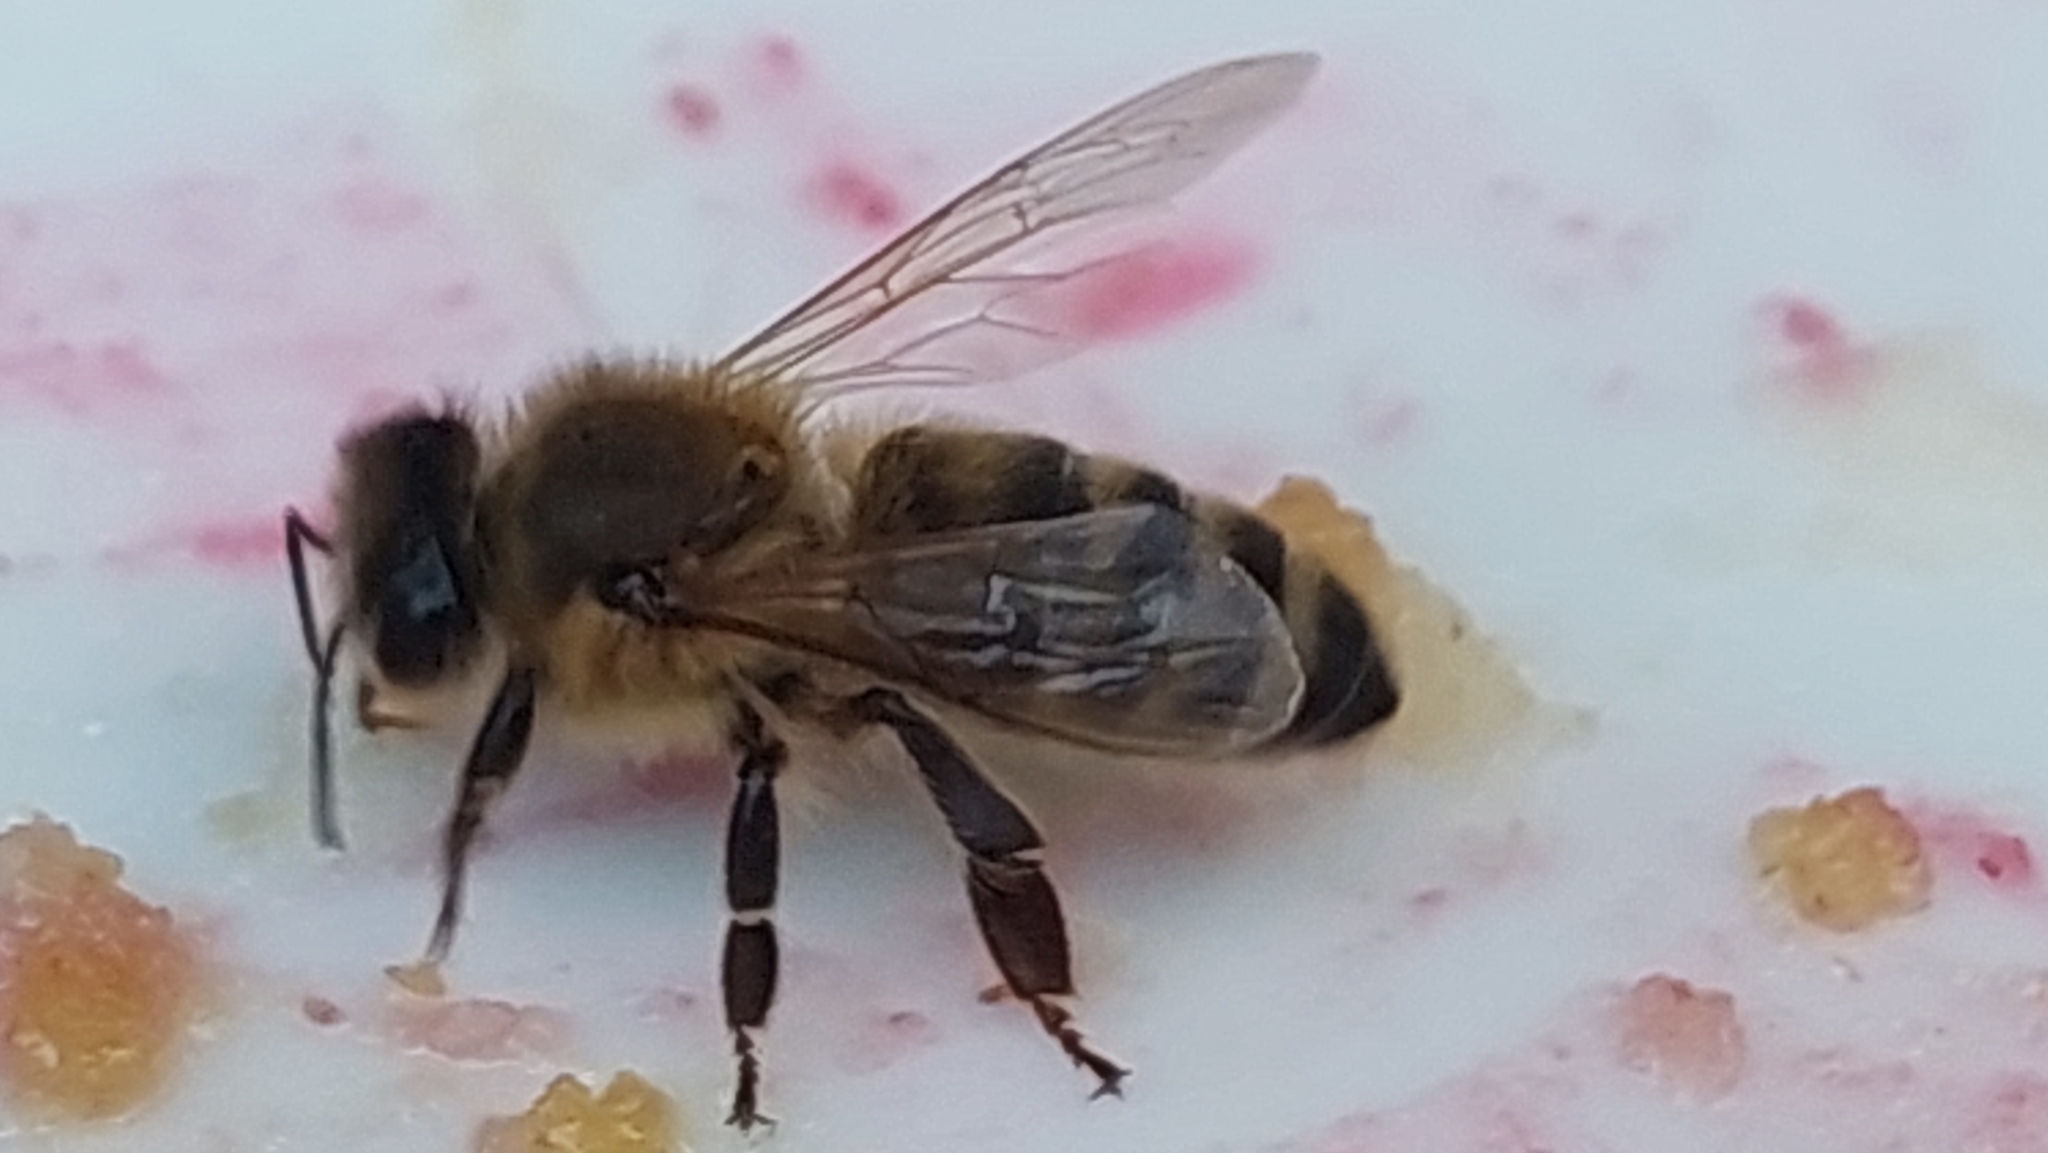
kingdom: Animalia
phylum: Arthropoda
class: Insecta
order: Hymenoptera
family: Apidae
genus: Apis
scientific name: Apis mellifera
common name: Honey bee
